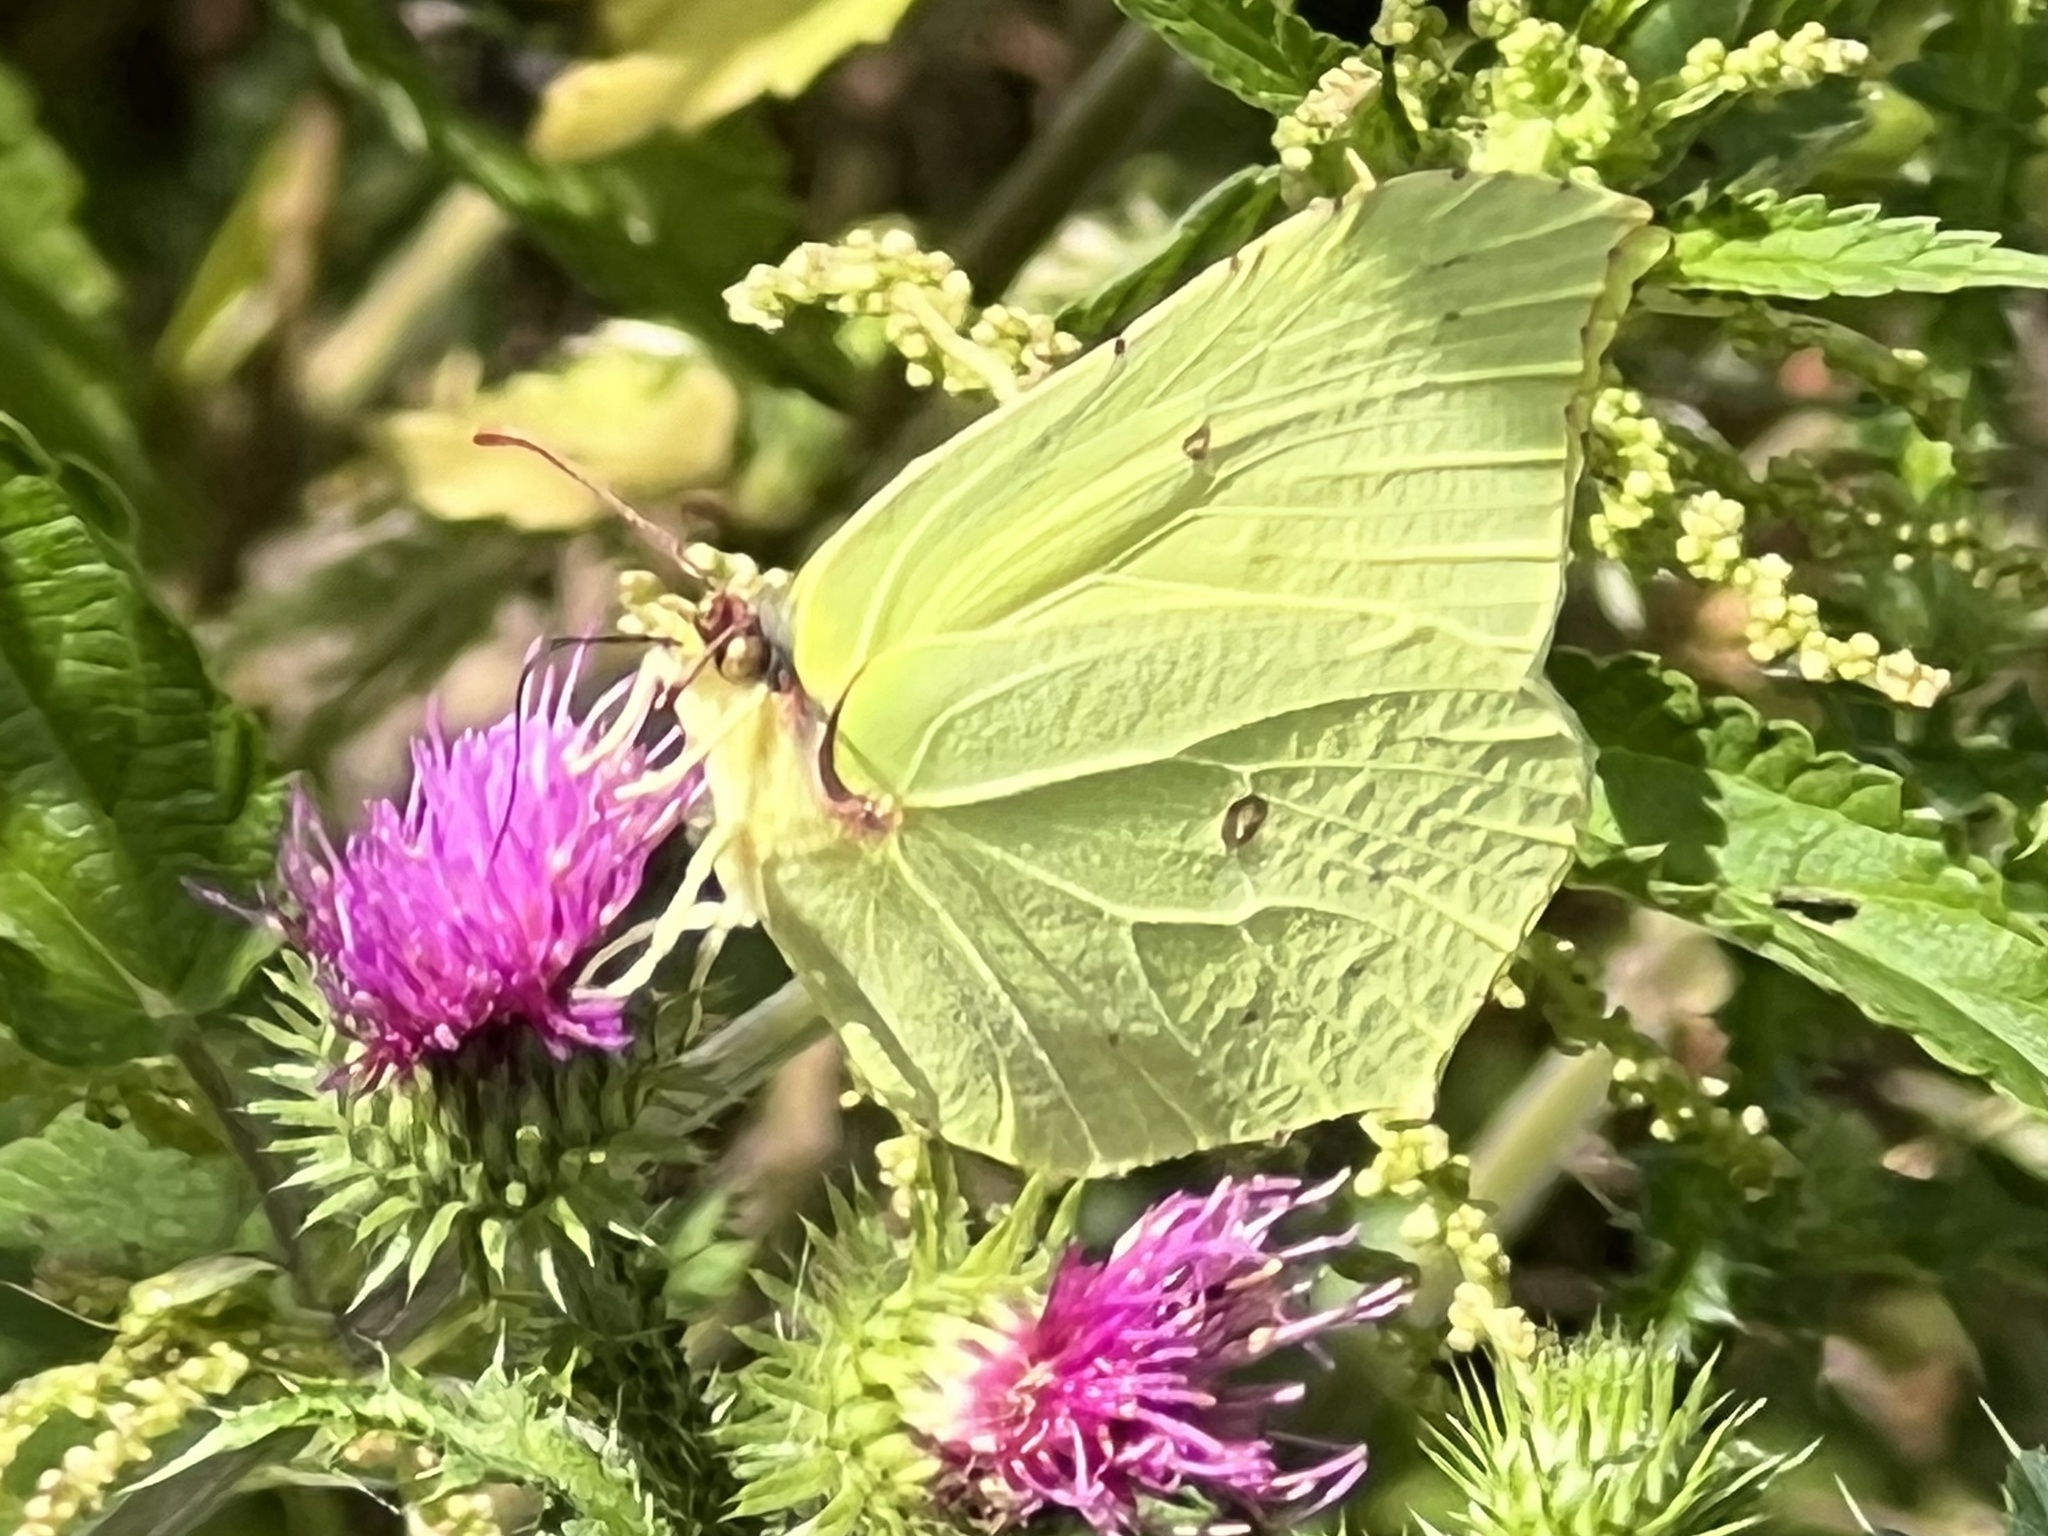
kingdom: Animalia
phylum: Arthropoda
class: Insecta
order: Lepidoptera
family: Pieridae
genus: Gonepteryx
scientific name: Gonepteryx rhamni
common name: Brimstone
